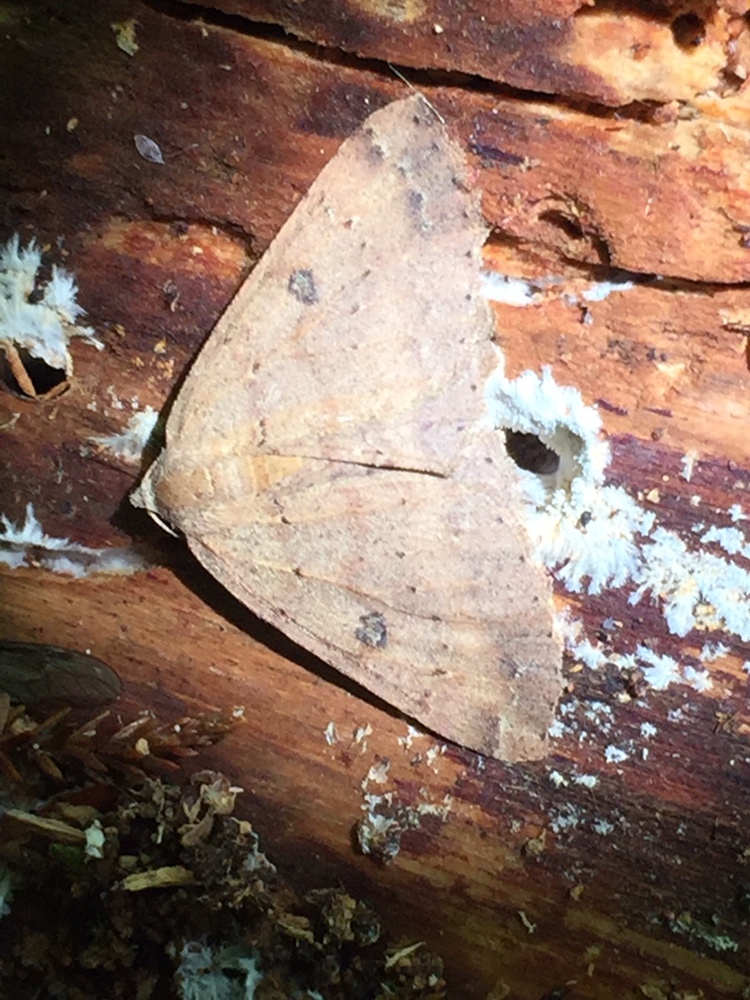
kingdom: Animalia
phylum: Arthropoda
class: Insecta
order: Lepidoptera
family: Geometridae
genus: Cleora
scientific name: Cleora scriptaria
